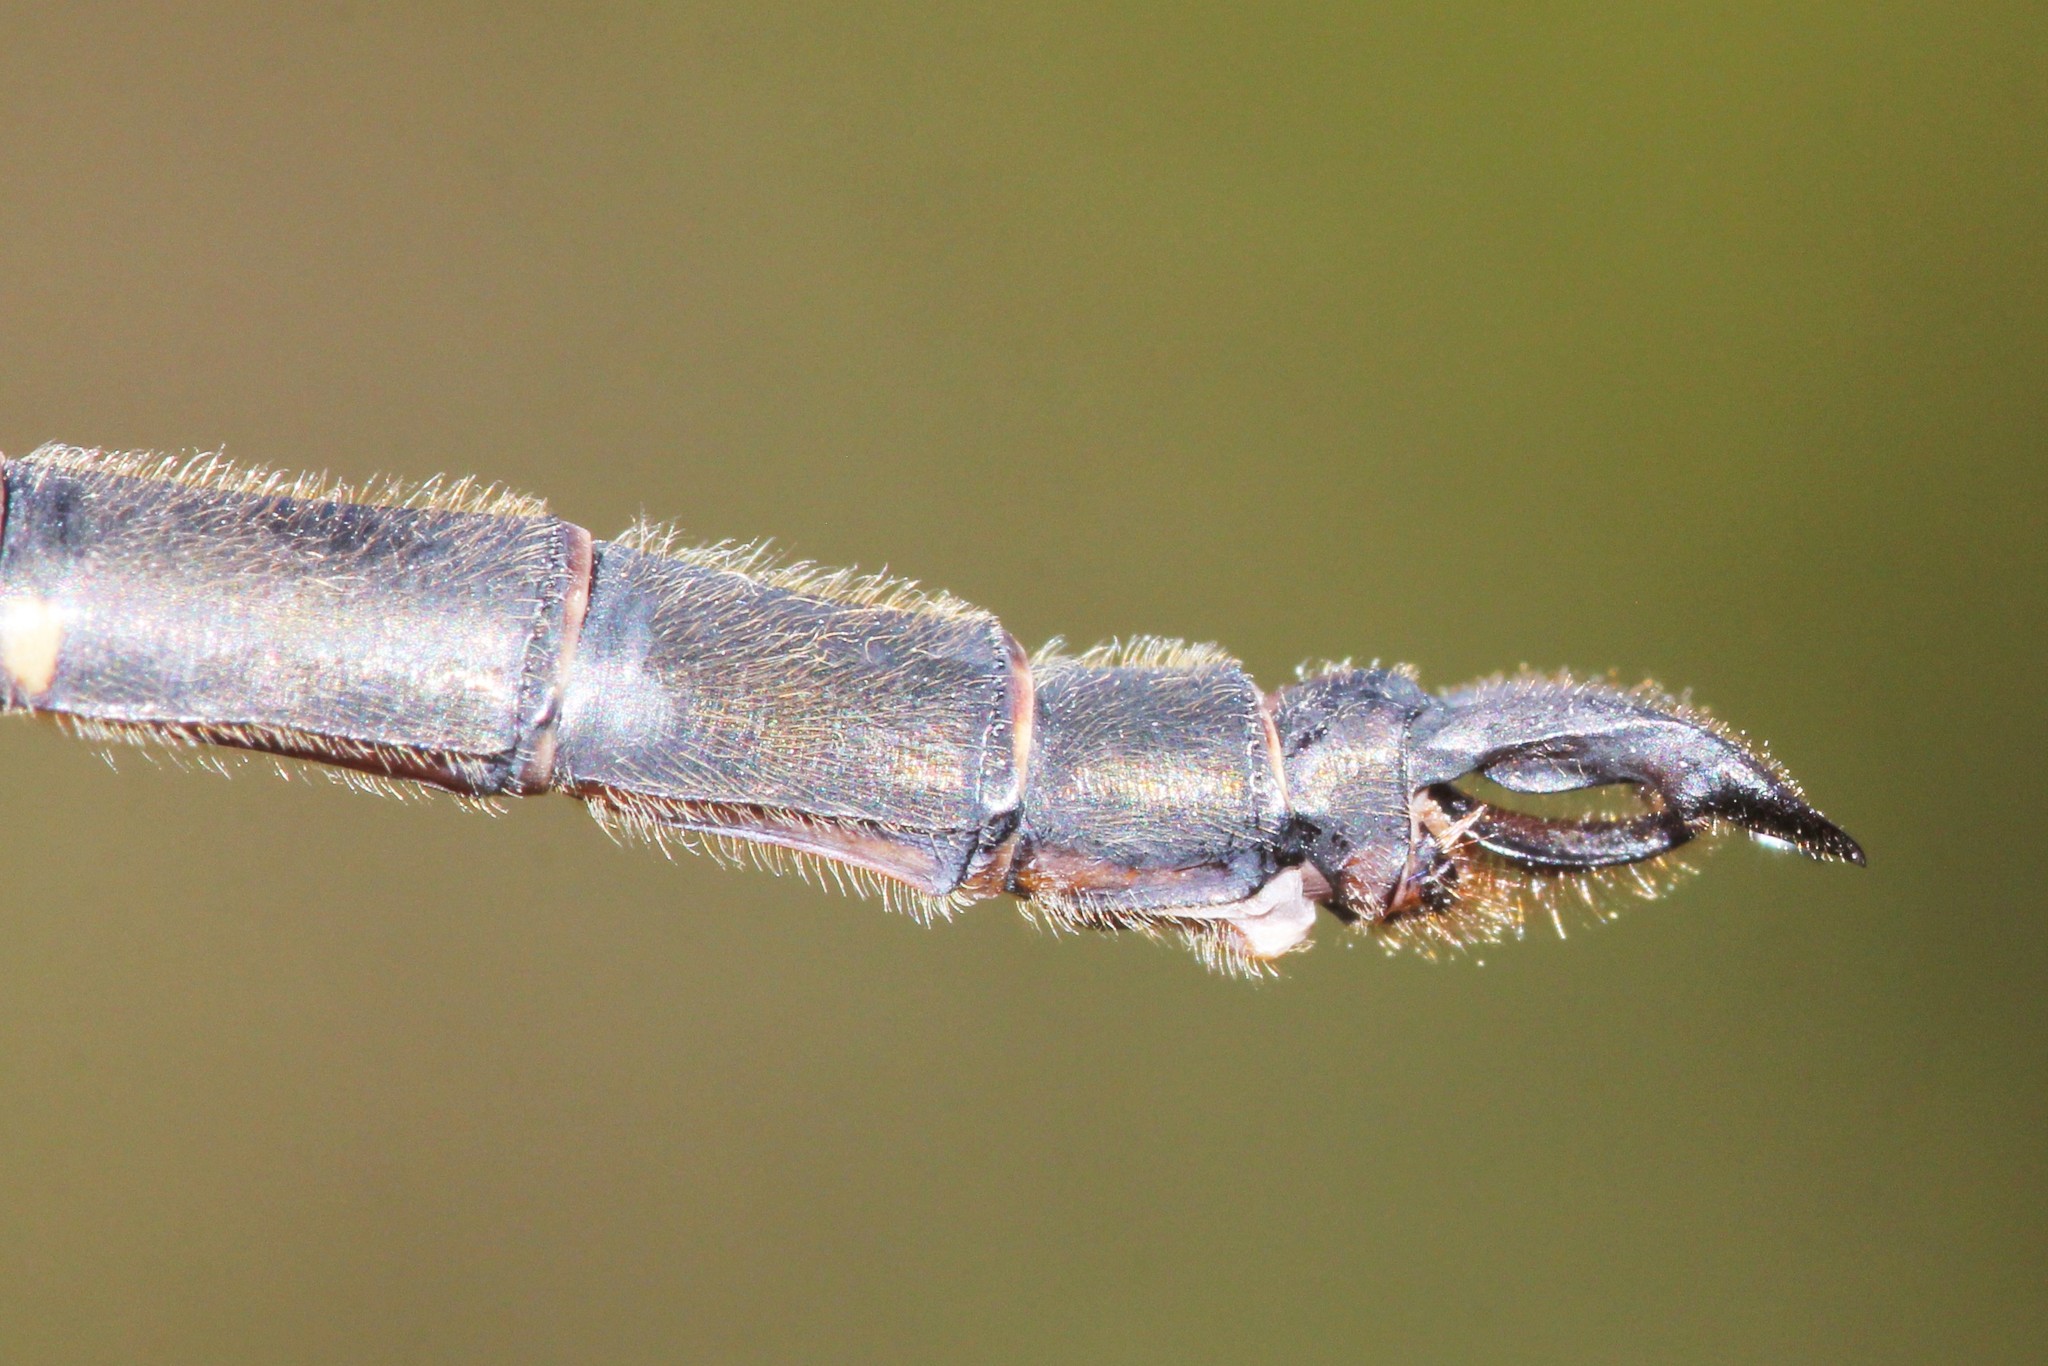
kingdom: Animalia
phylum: Arthropoda
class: Insecta
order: Odonata
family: Corduliidae
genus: Somatochlora
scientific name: Somatochlora forcipata
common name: Forcipate emerald
